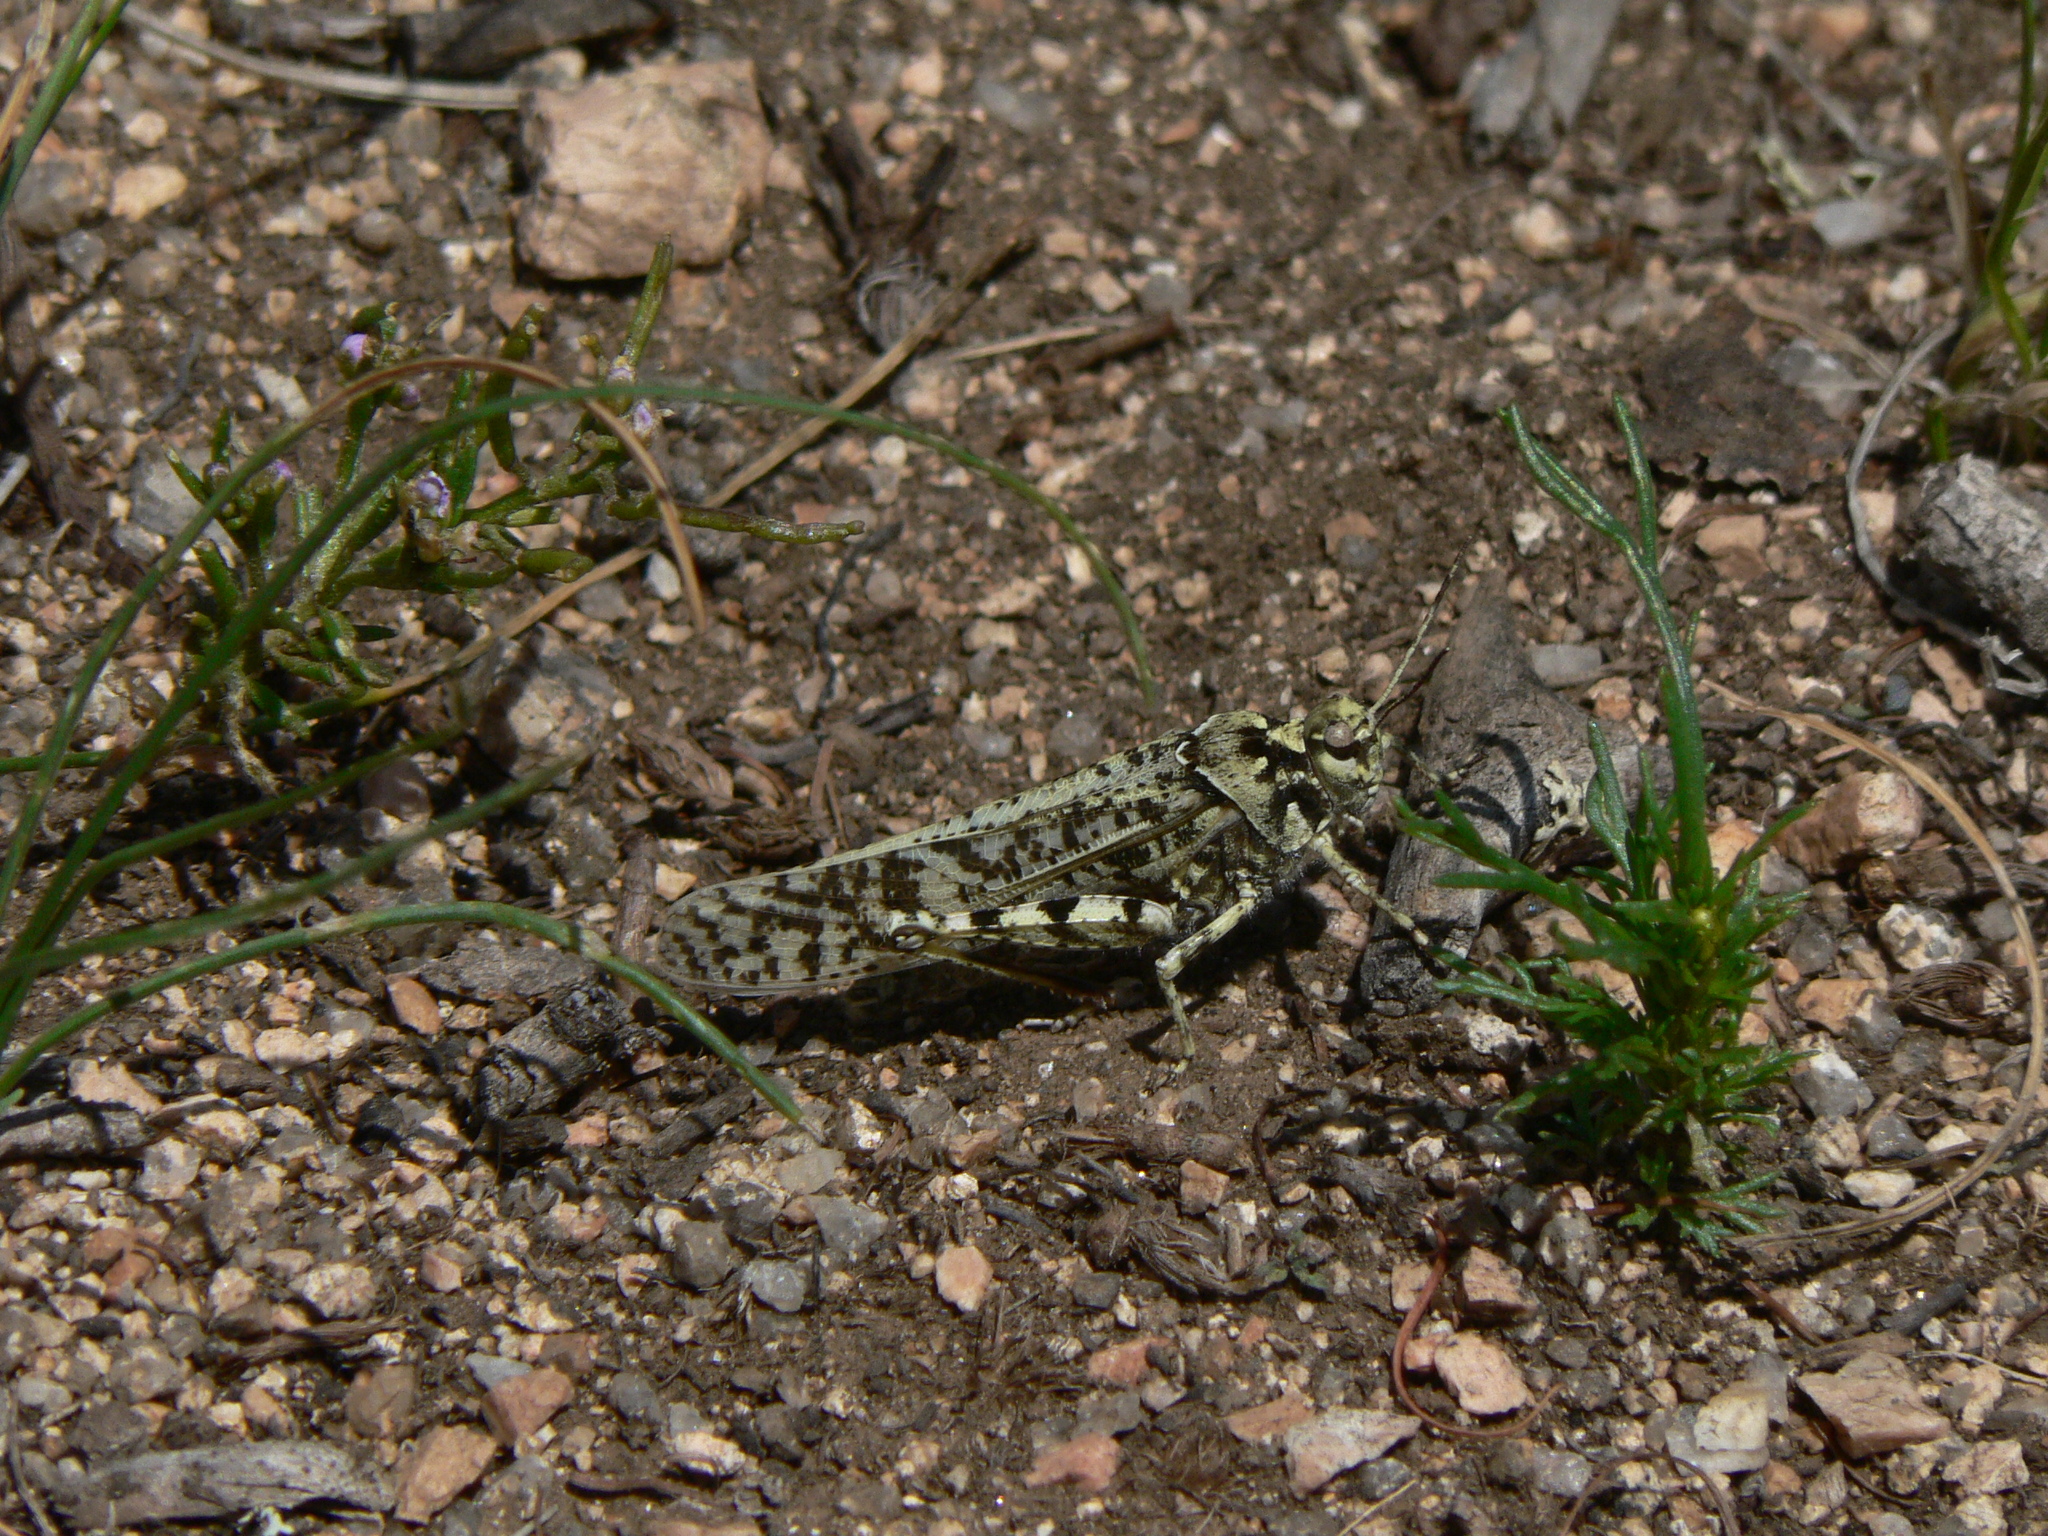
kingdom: Animalia
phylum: Arthropoda
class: Insecta
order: Orthoptera
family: Acrididae
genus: Angaracris
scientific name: Angaracris barabensis
